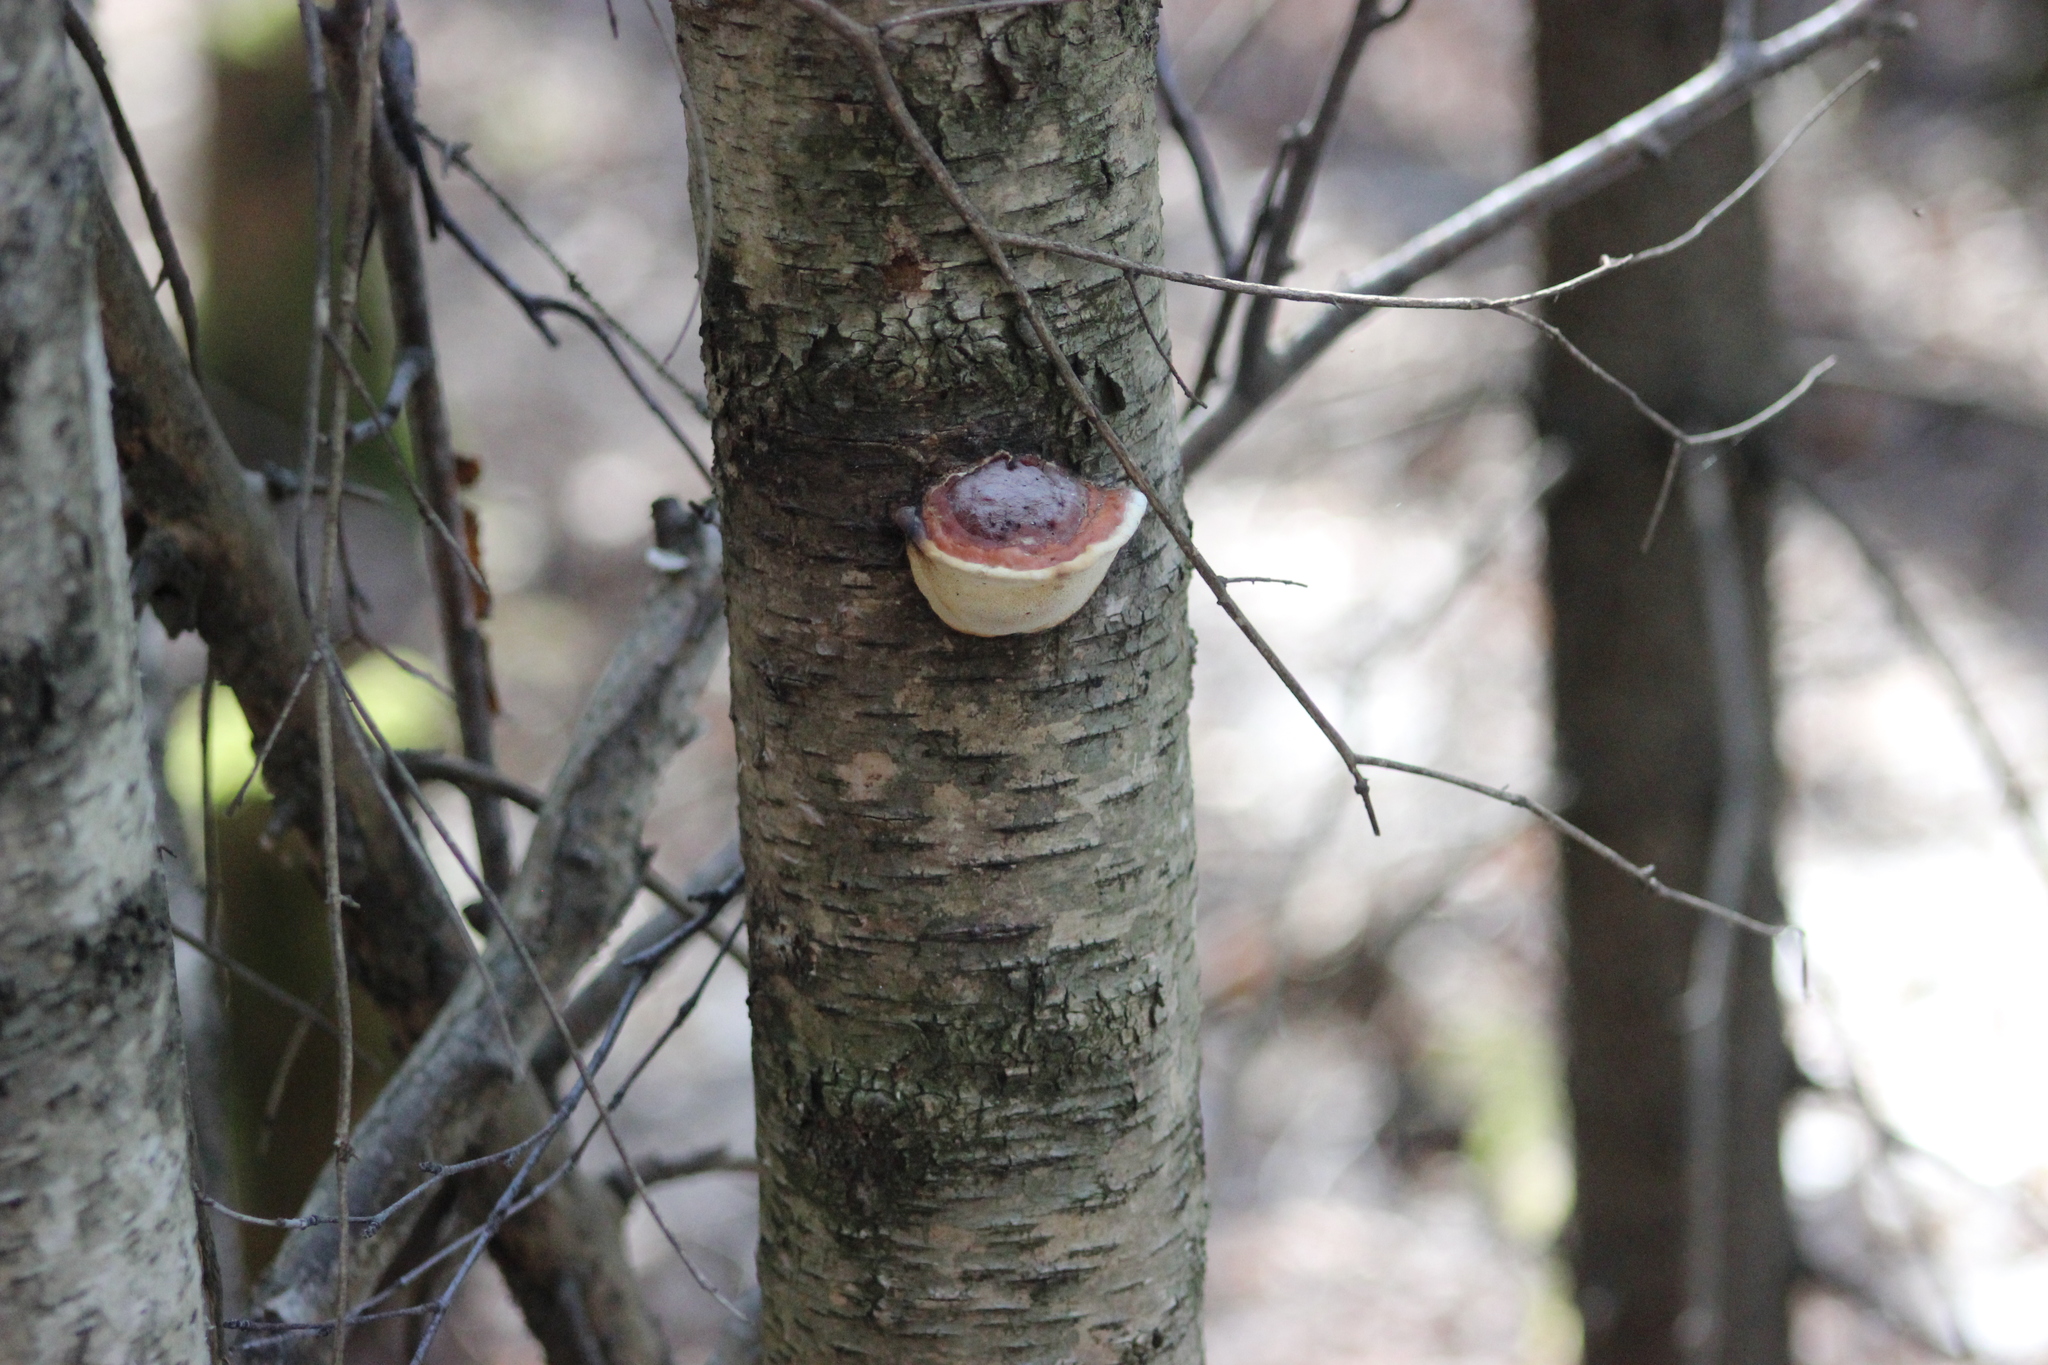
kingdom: Fungi
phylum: Basidiomycota
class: Agaricomycetes
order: Polyporales
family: Fomitopsidaceae
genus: Fomitopsis
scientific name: Fomitopsis pinicola
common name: Red-belted bracket
